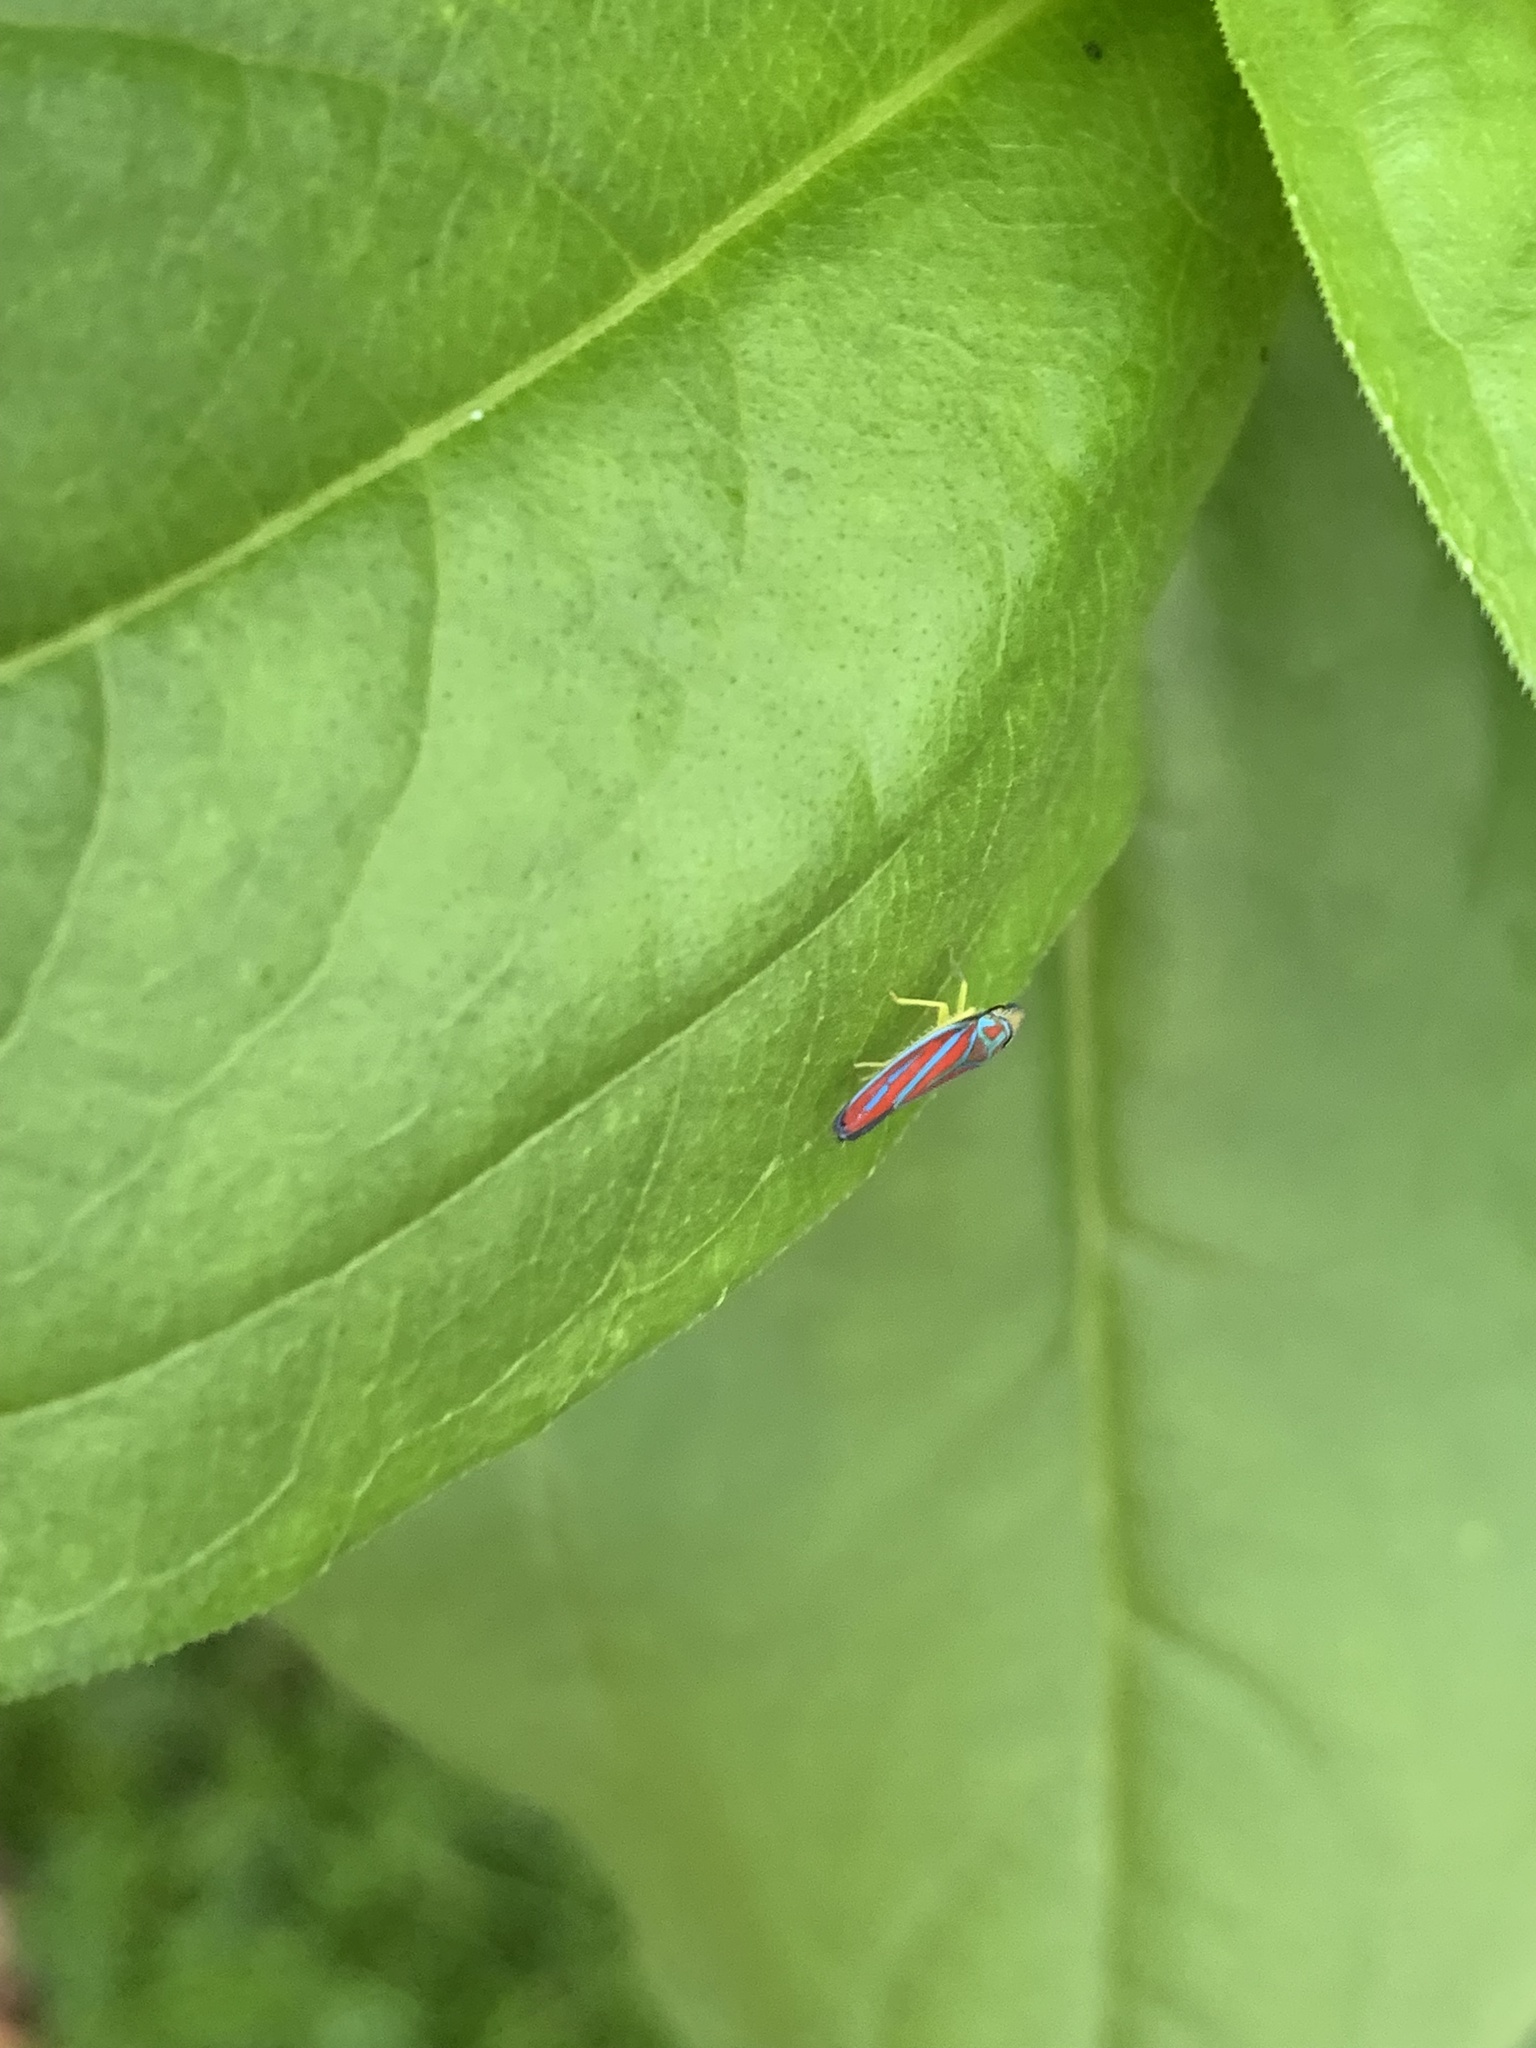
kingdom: Animalia
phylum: Arthropoda
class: Insecta
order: Hemiptera
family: Cicadellidae
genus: Graphocephala
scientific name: Graphocephala coccinea
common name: Candy-striped leafhopper
